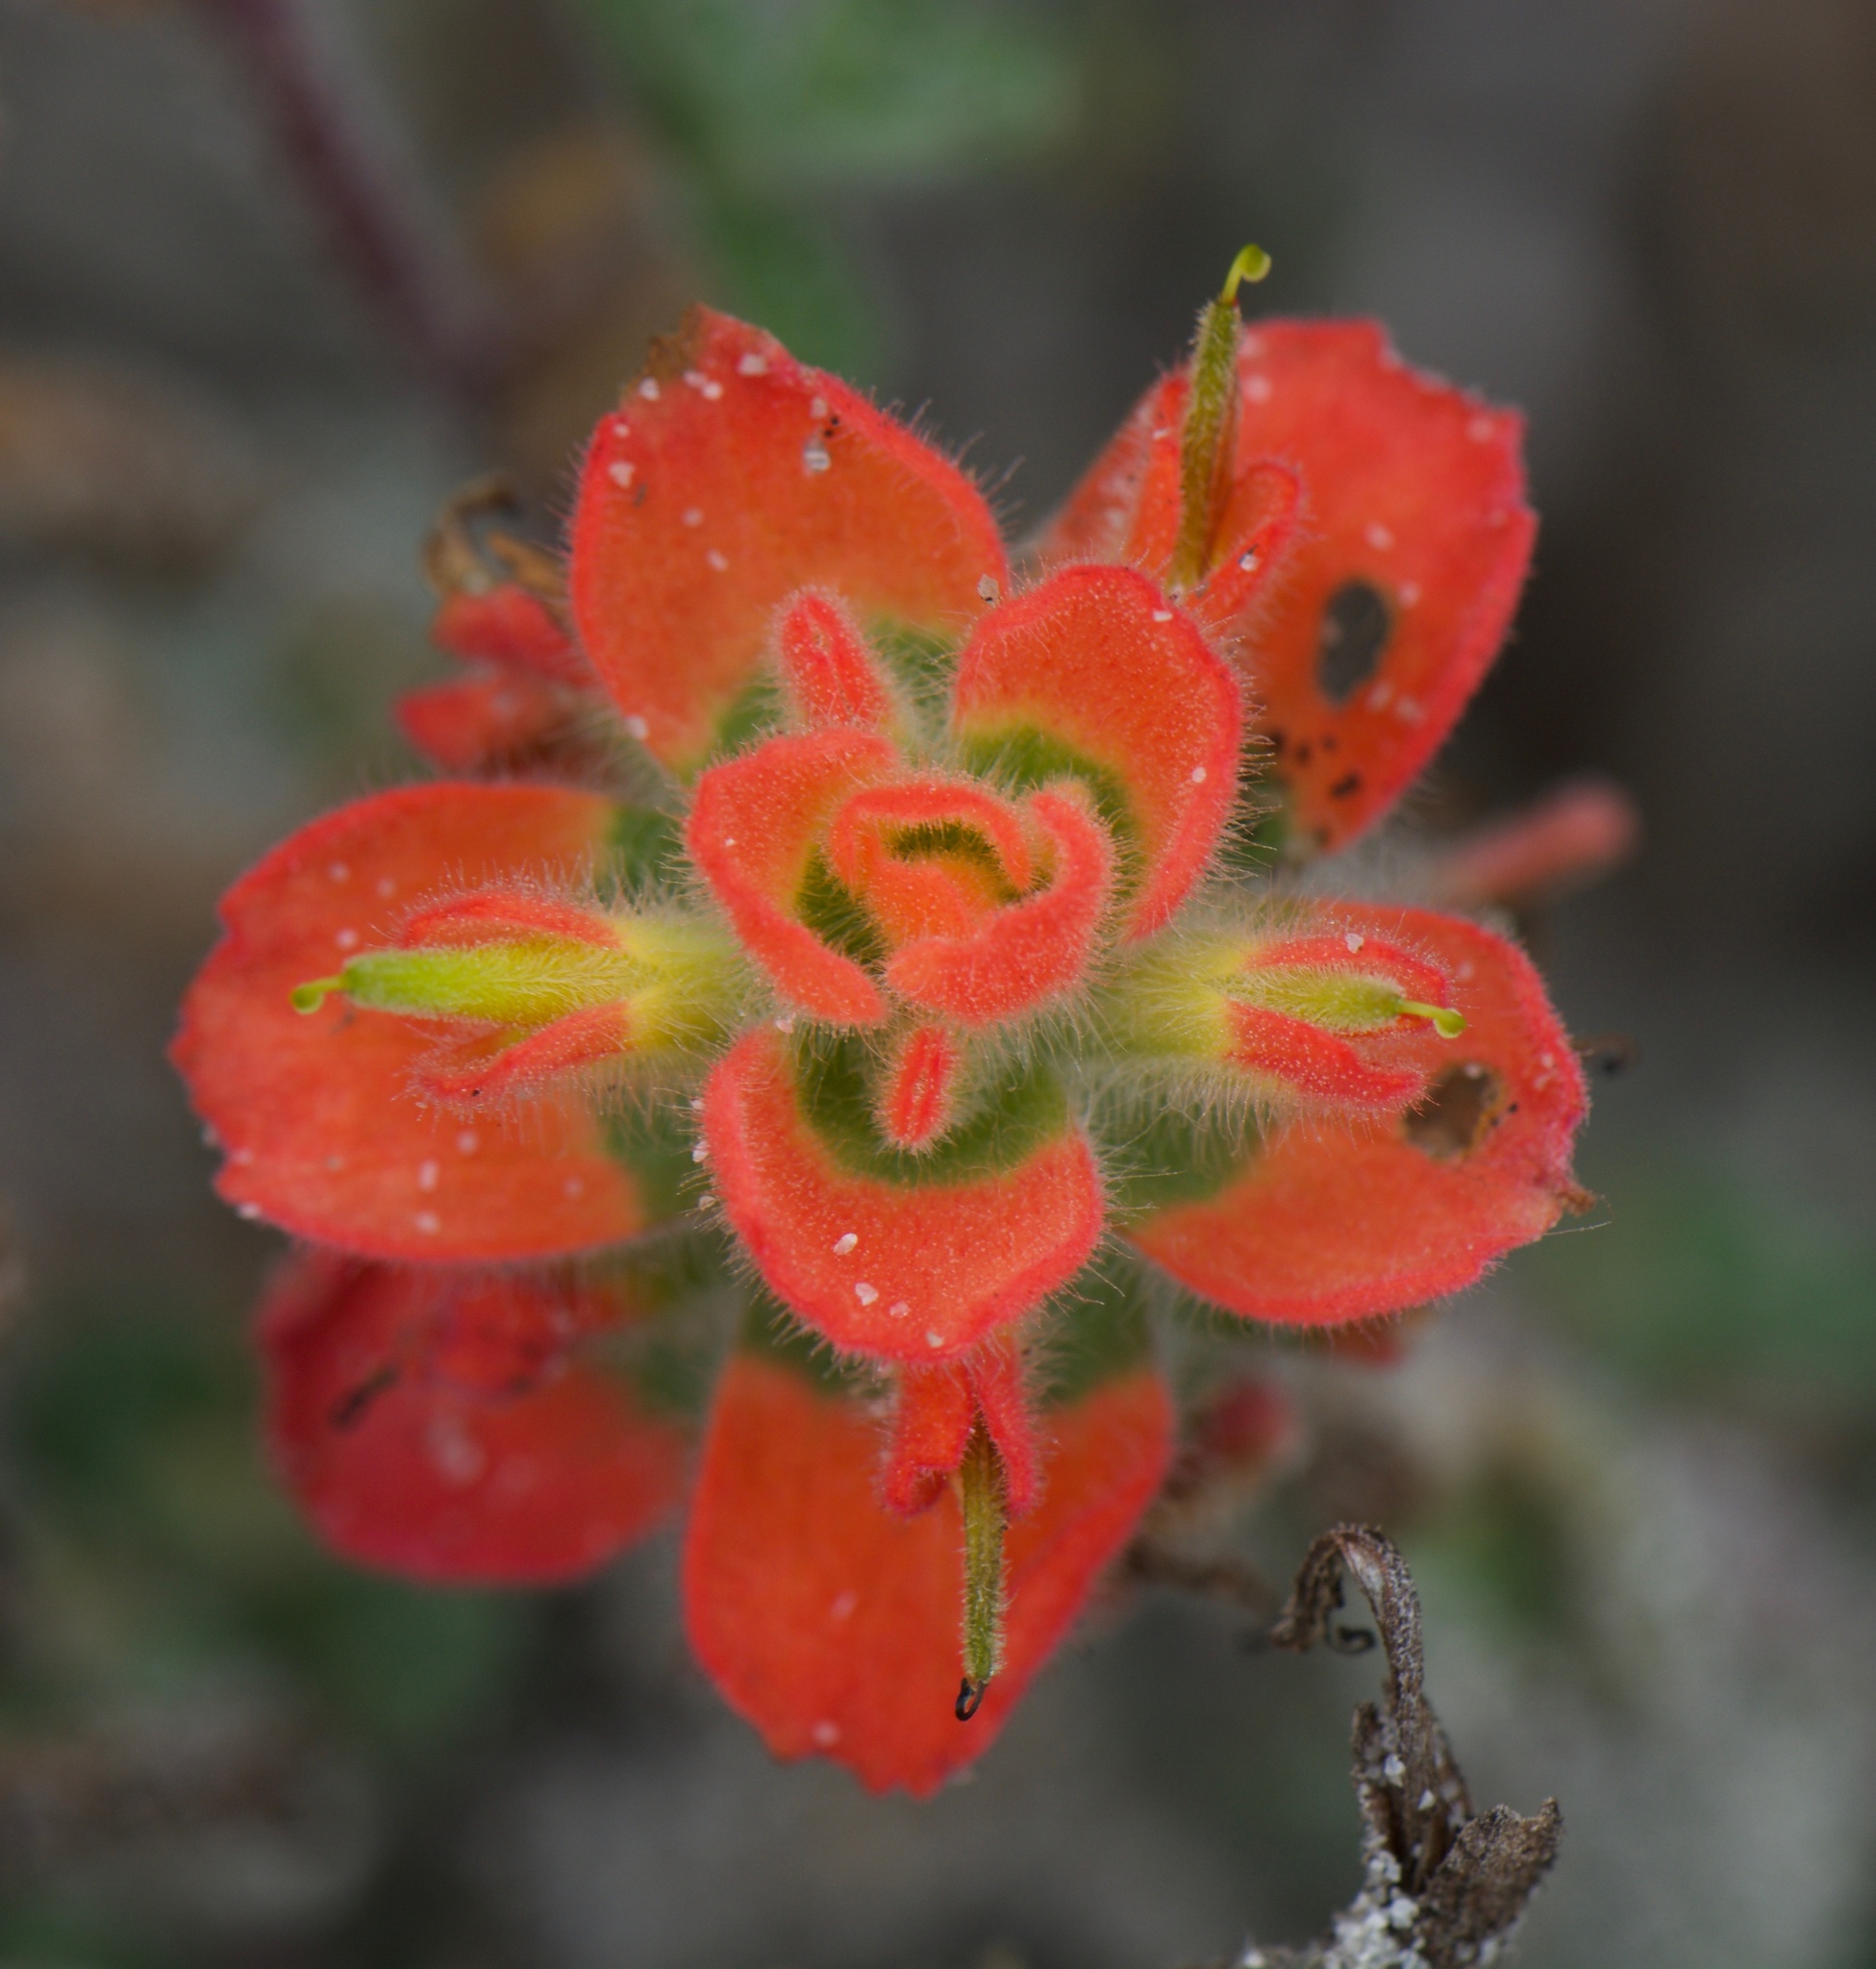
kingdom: Plantae
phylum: Tracheophyta
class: Magnoliopsida
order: Lamiales
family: Orobanchaceae
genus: Castilleja
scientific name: Castilleja latifolia
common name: Monterey indian paintbrush
